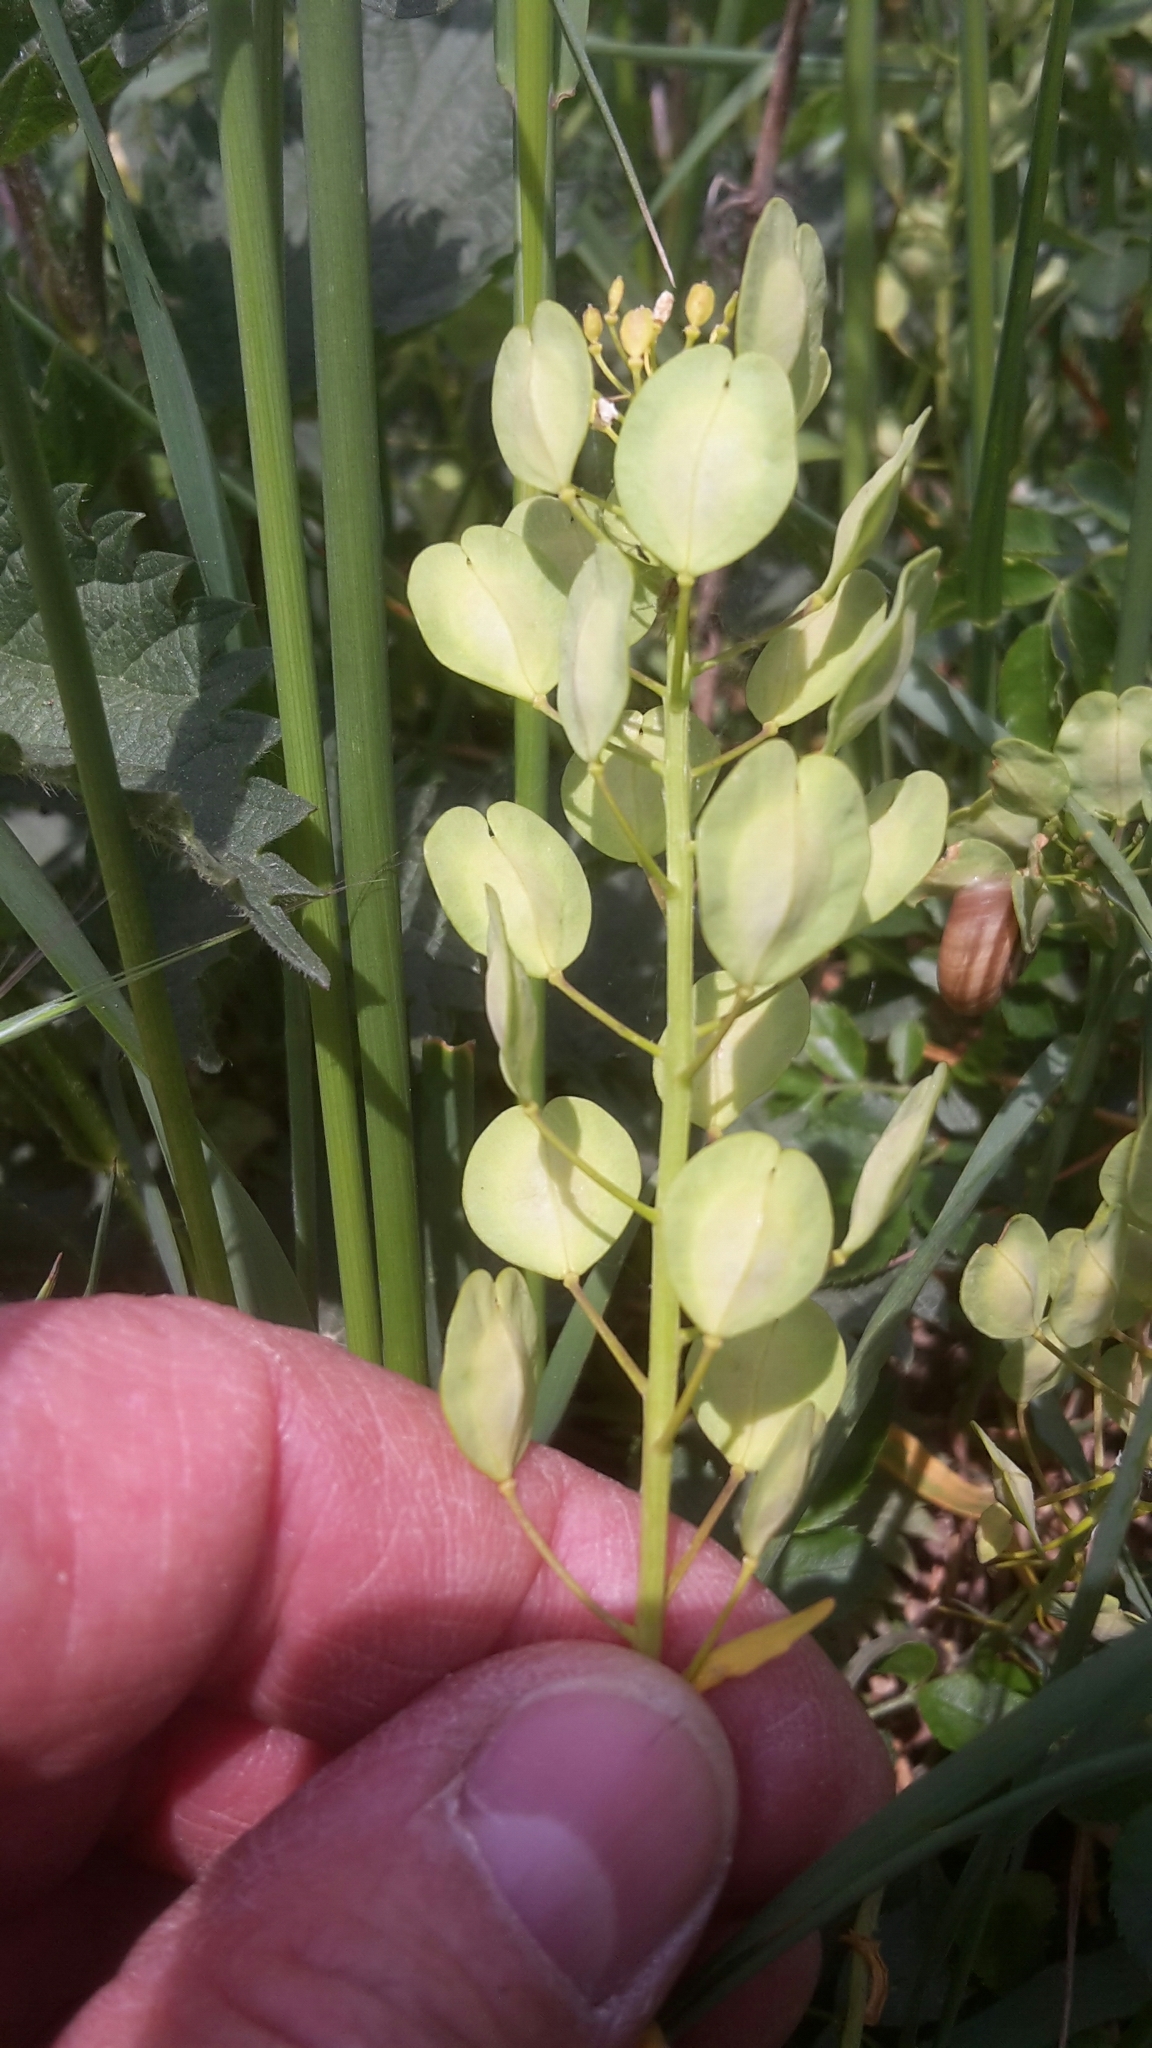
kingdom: Plantae
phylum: Tracheophyta
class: Magnoliopsida
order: Brassicales
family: Brassicaceae
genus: Thlaspi
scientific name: Thlaspi arvense
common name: Field pennycress
